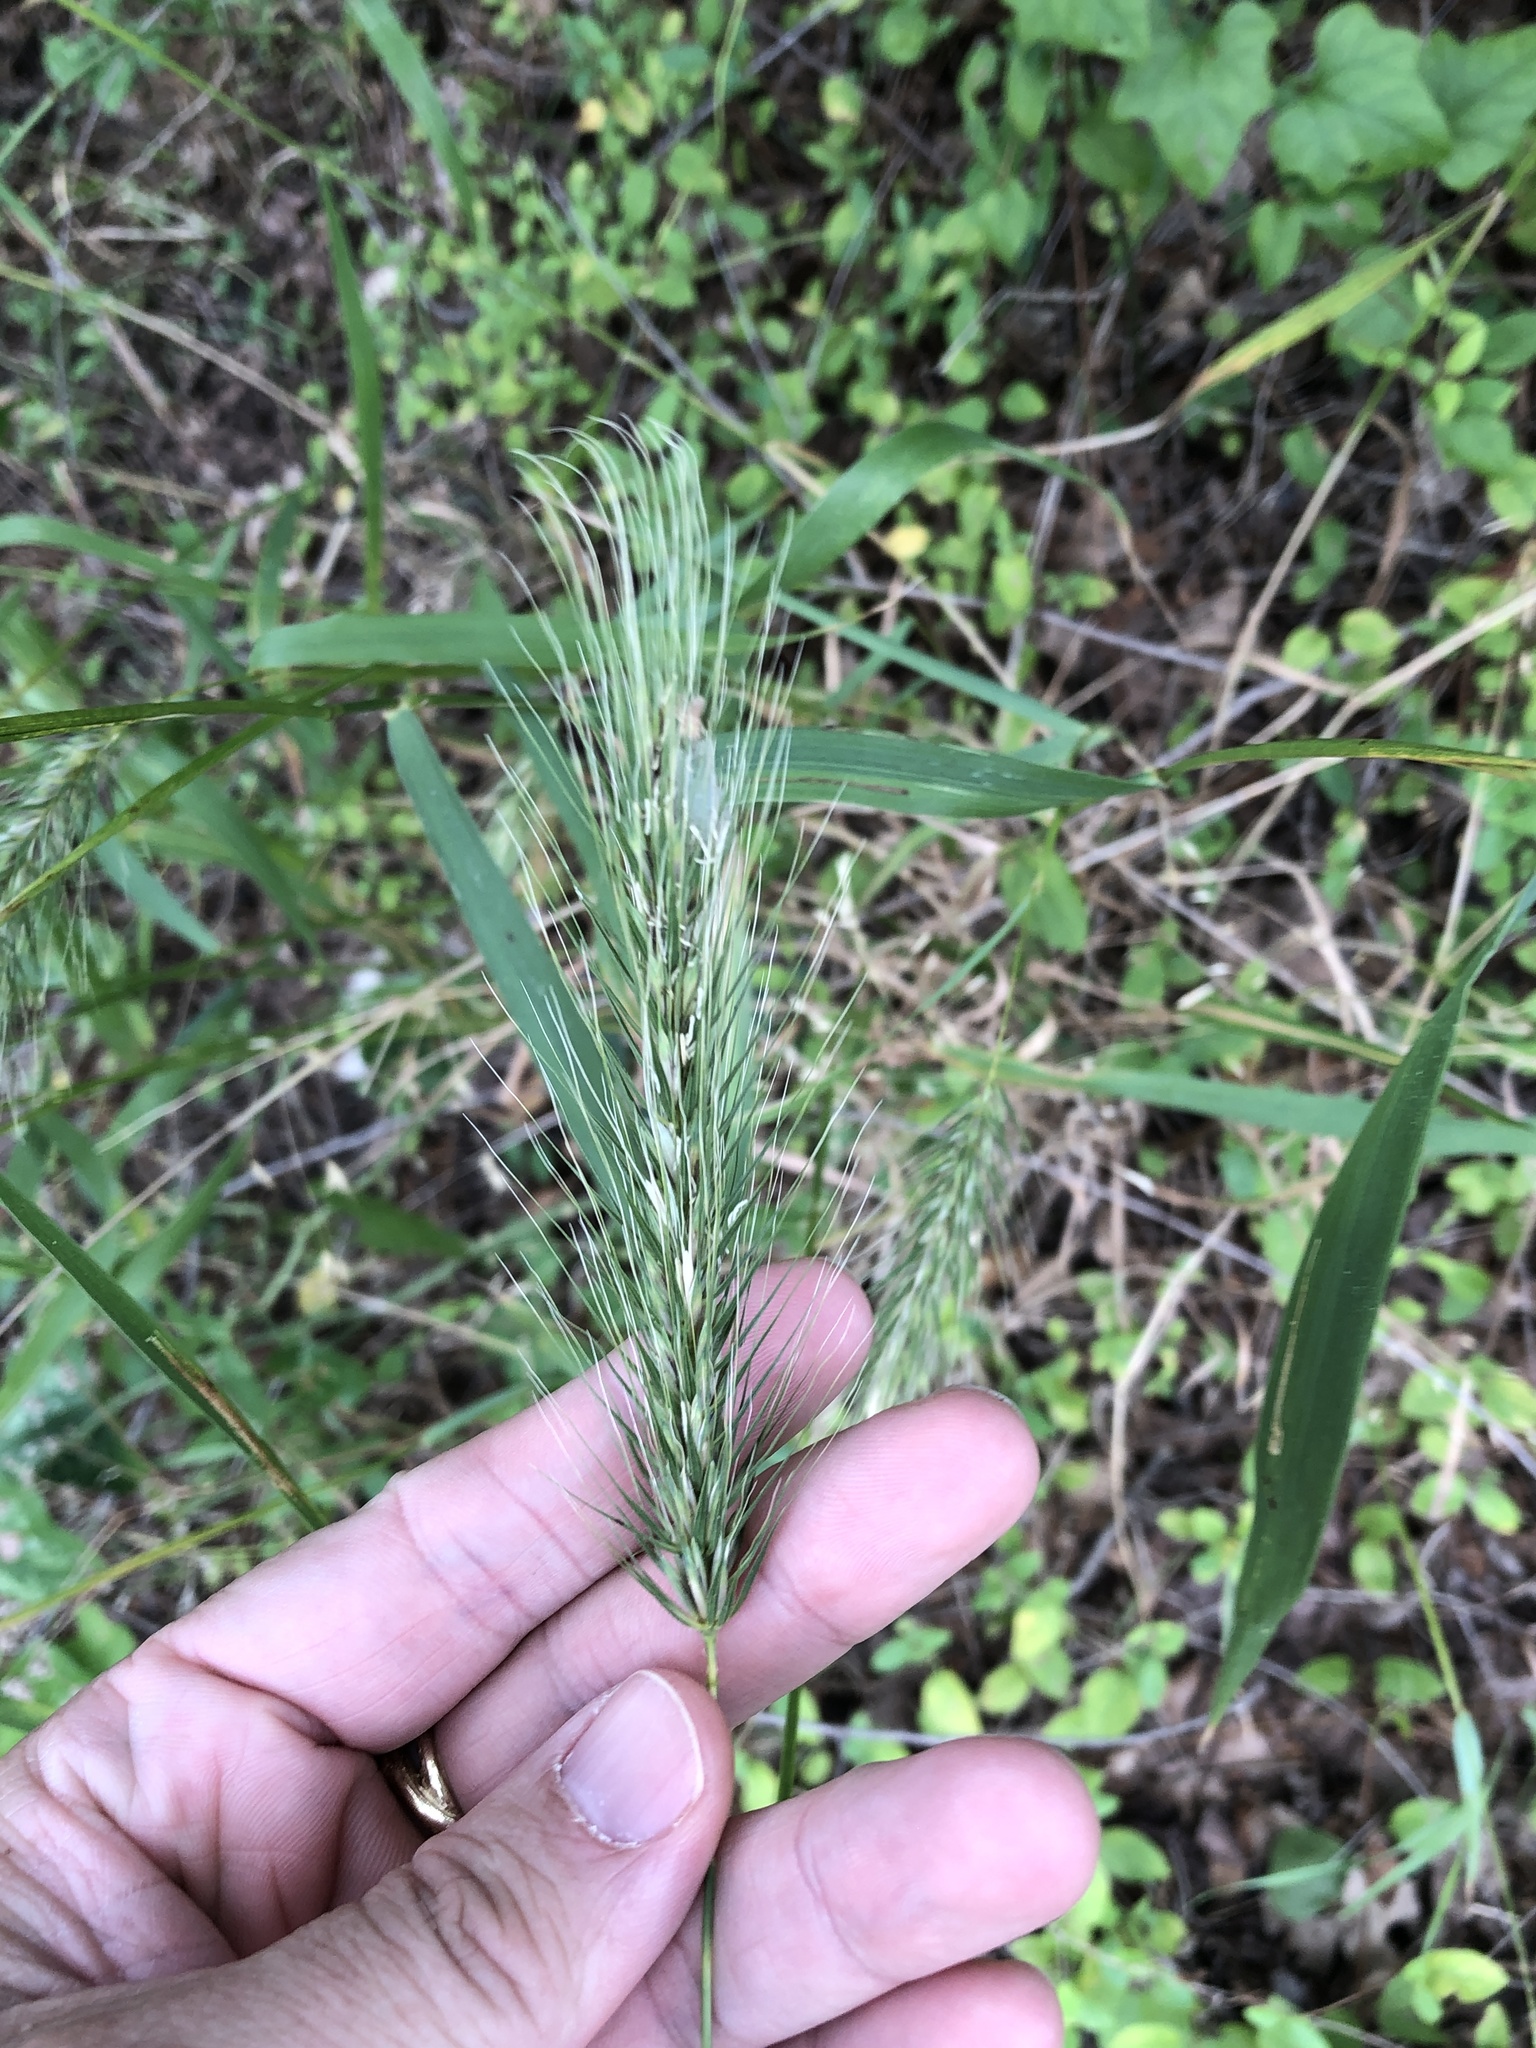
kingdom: Plantae
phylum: Tracheophyta
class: Liliopsida
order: Poales
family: Poaceae
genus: Elymus
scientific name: Elymus canadensis
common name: Canada wild rye
